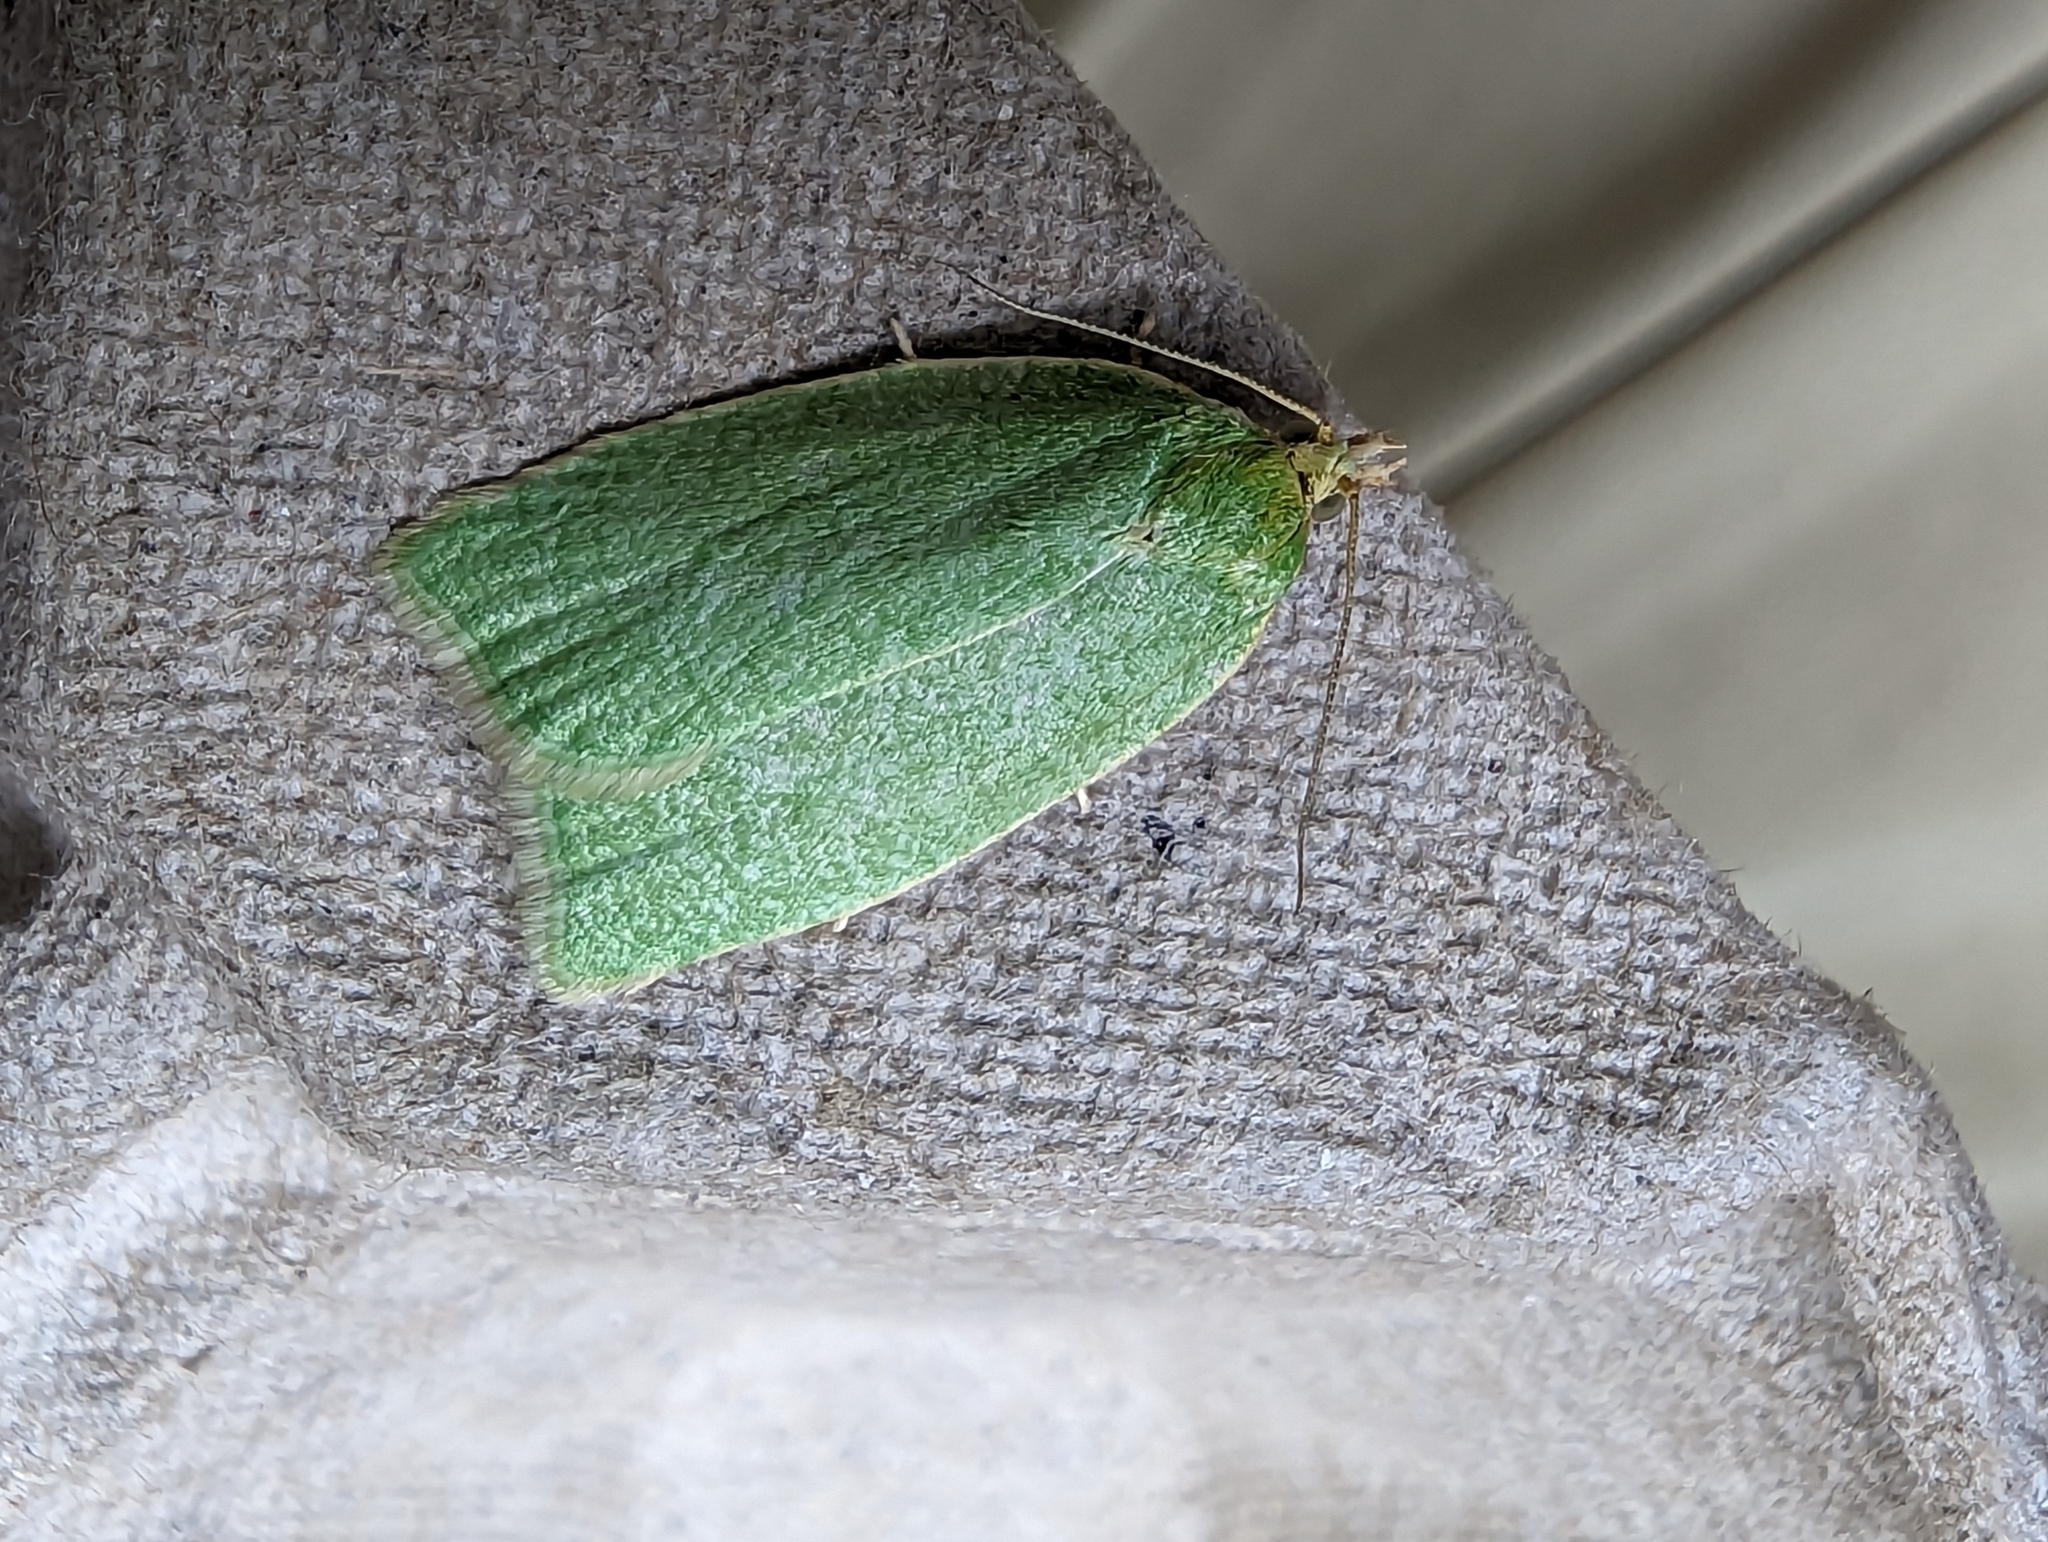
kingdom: Animalia
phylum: Arthropoda
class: Insecta
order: Lepidoptera
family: Tortricidae
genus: Tortrix
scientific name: Tortrix viridana
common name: Green oak tortrix
